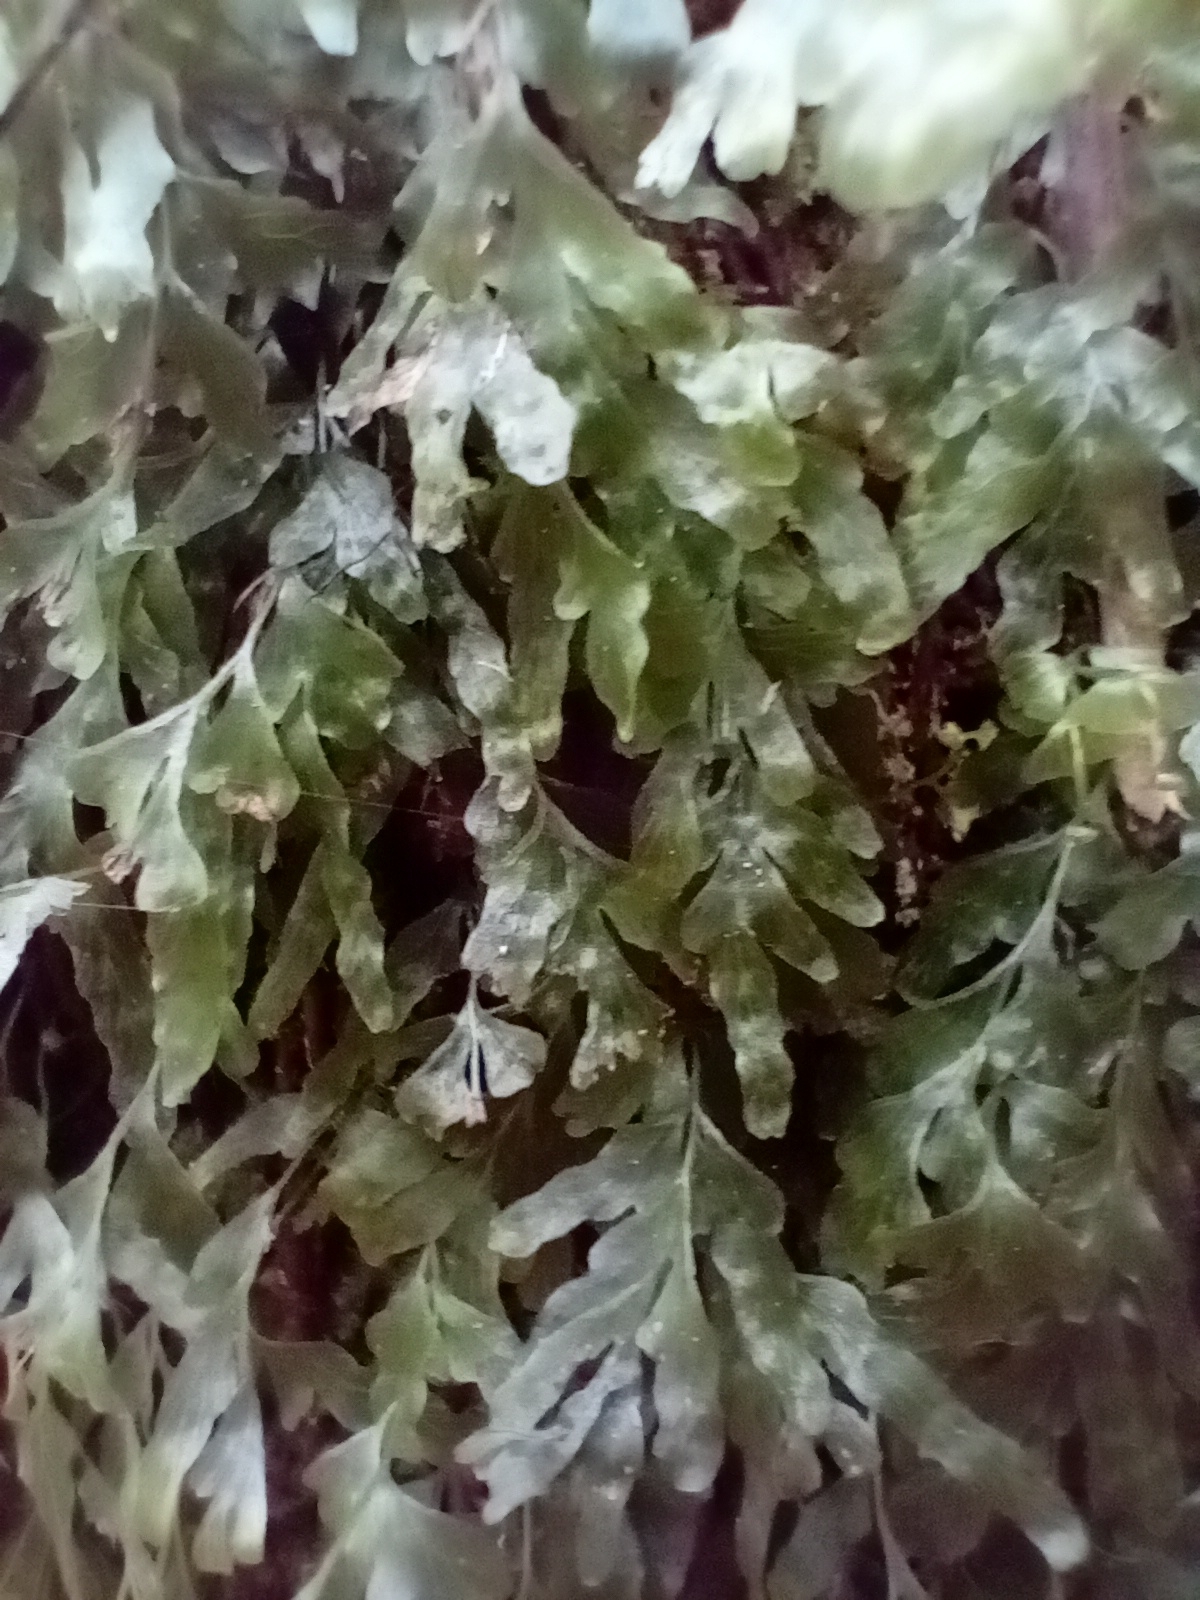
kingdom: Plantae
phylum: Tracheophyta
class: Polypodiopsida
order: Hymenophyllales
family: Hymenophyllaceae
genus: Polyphlebium
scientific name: Polyphlebium venosum
